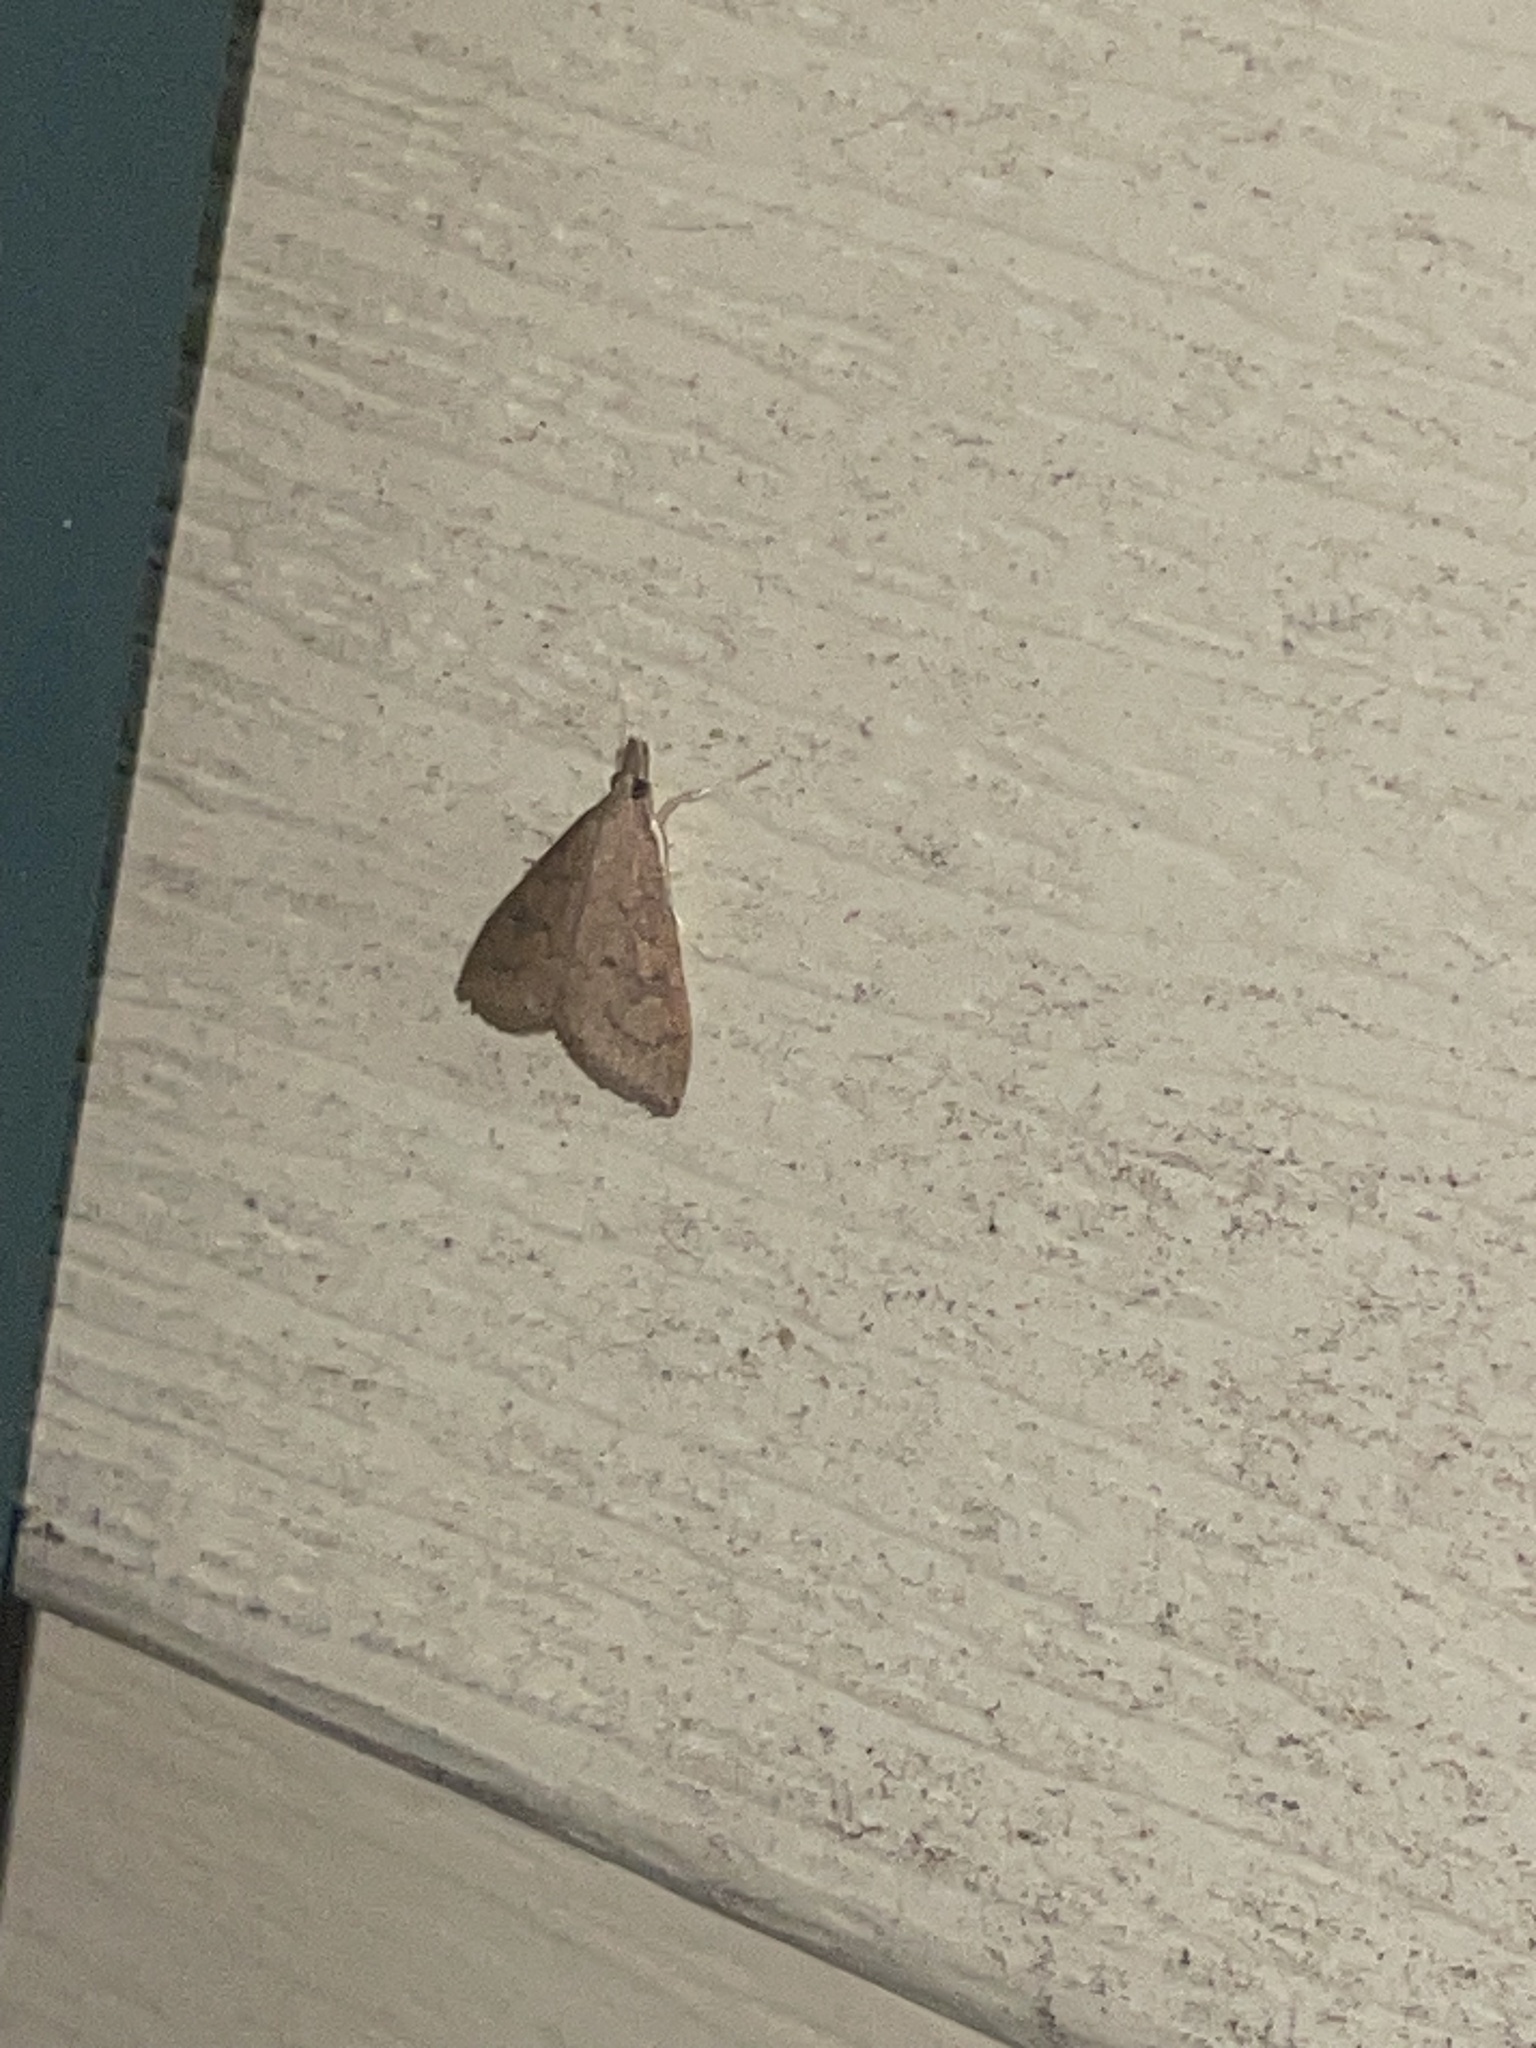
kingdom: Animalia
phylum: Arthropoda
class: Insecta
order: Lepidoptera
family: Crambidae
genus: Udea
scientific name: Udea rubigalis
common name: Celery leaftier moth
